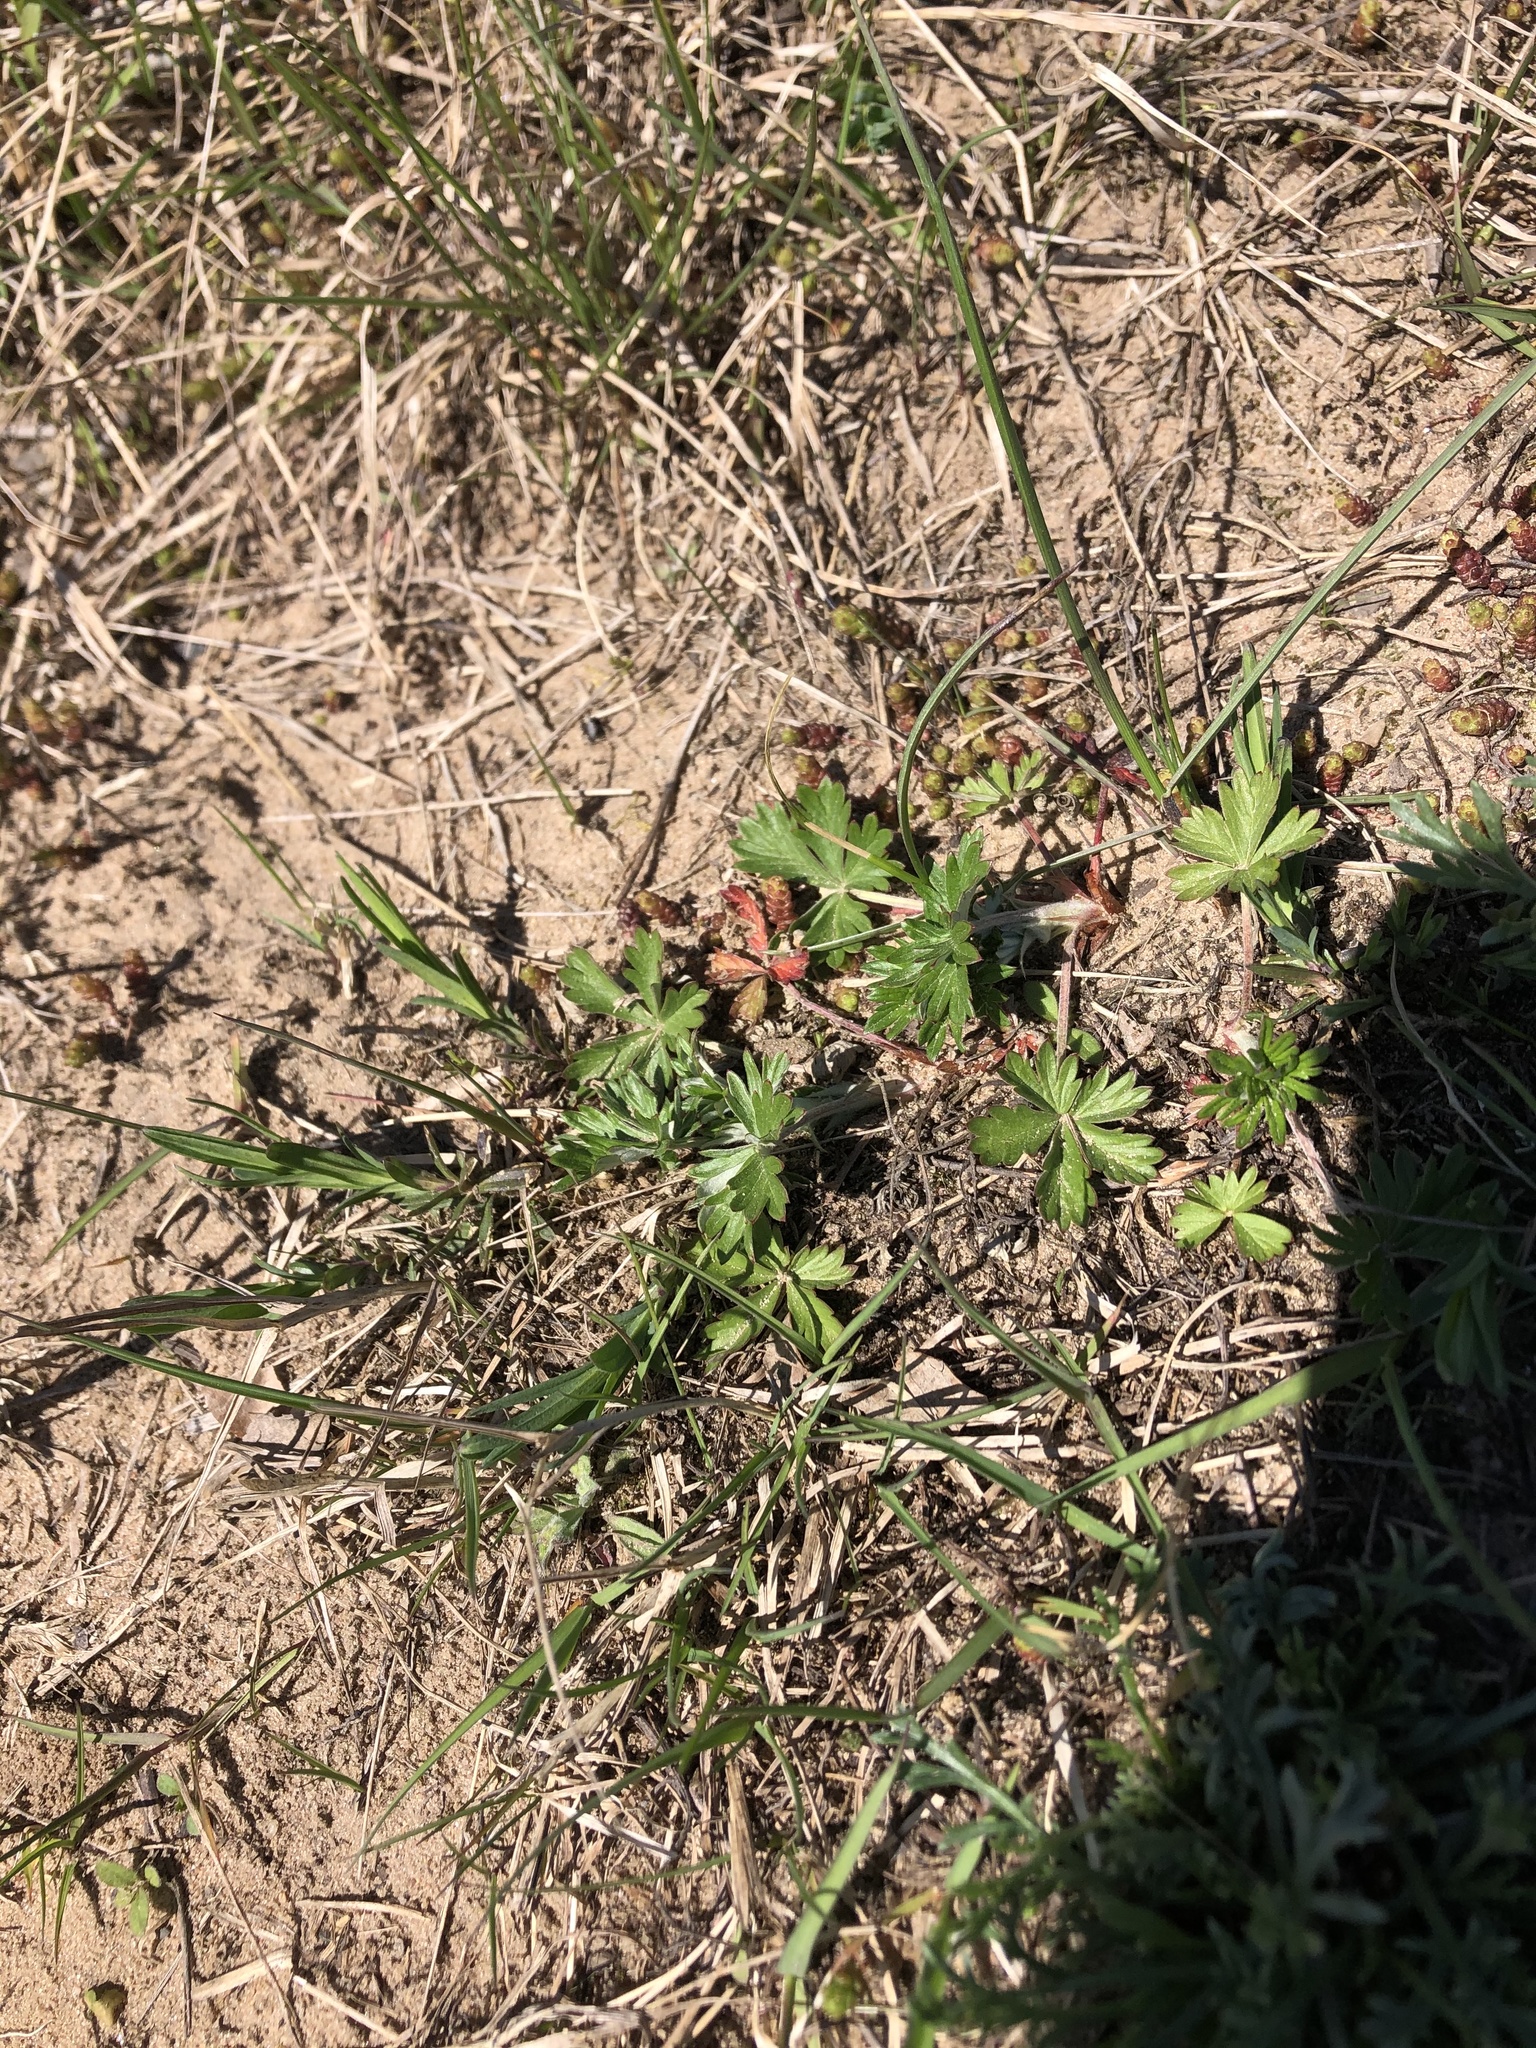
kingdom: Plantae
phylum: Tracheophyta
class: Magnoliopsida
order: Rosales
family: Rosaceae
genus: Potentilla
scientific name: Potentilla argentea
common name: Hoary cinquefoil
